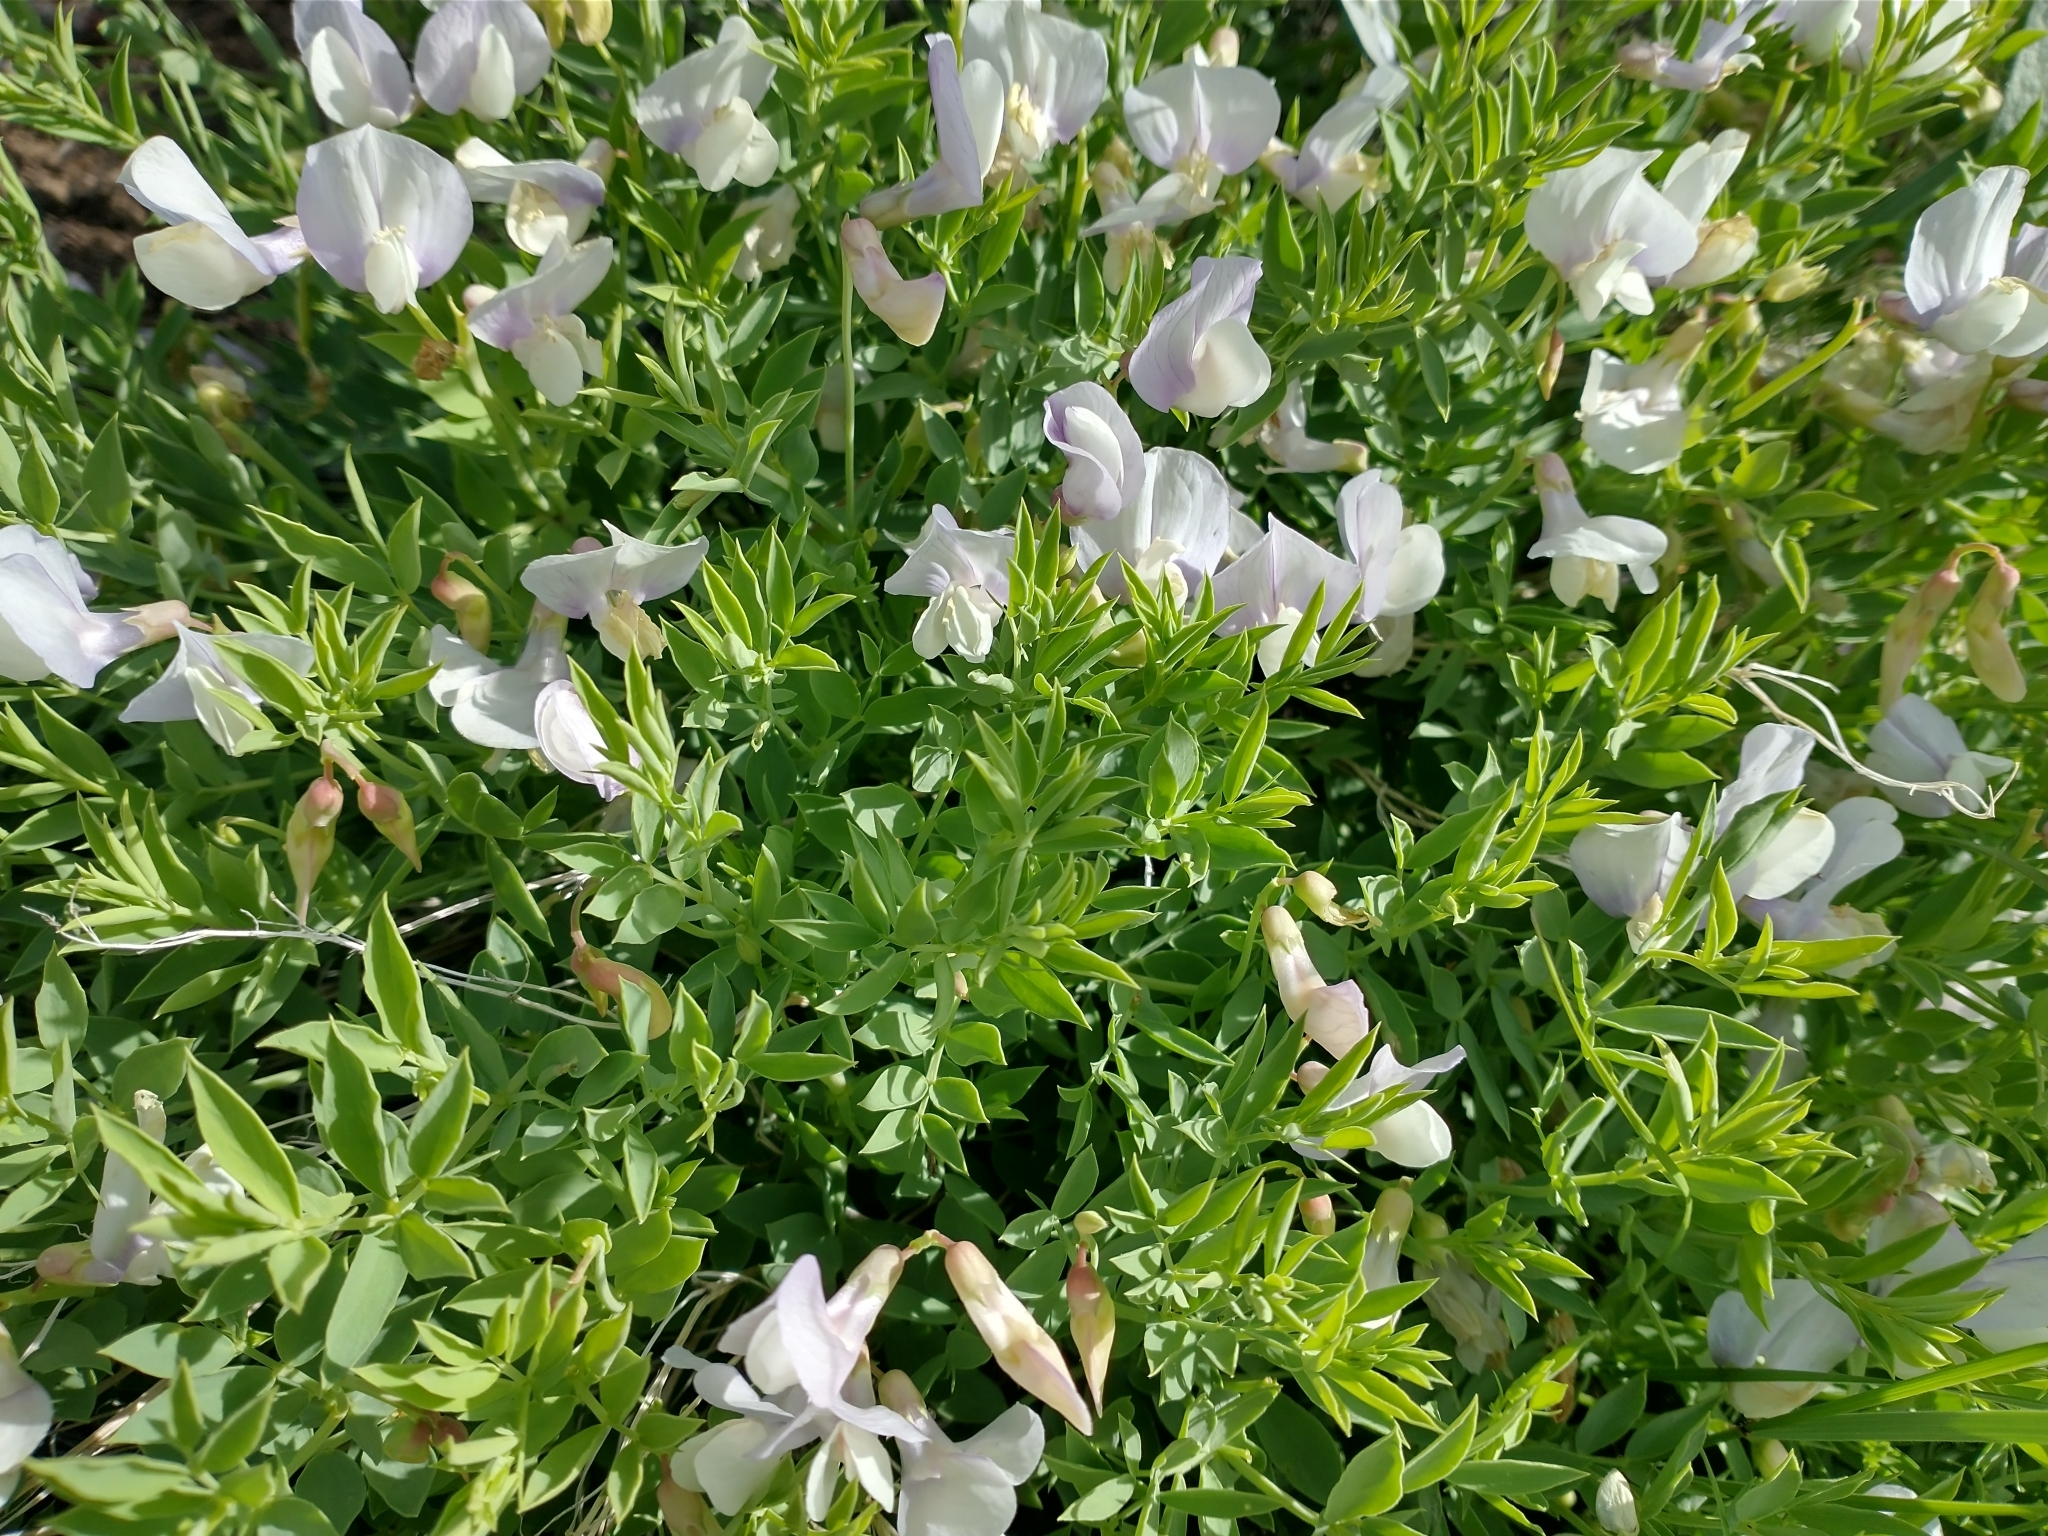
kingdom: Plantae
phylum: Tracheophyta
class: Magnoliopsida
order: Fabales
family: Fabaceae
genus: Lathyrus
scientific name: Lathyrus rigidus
